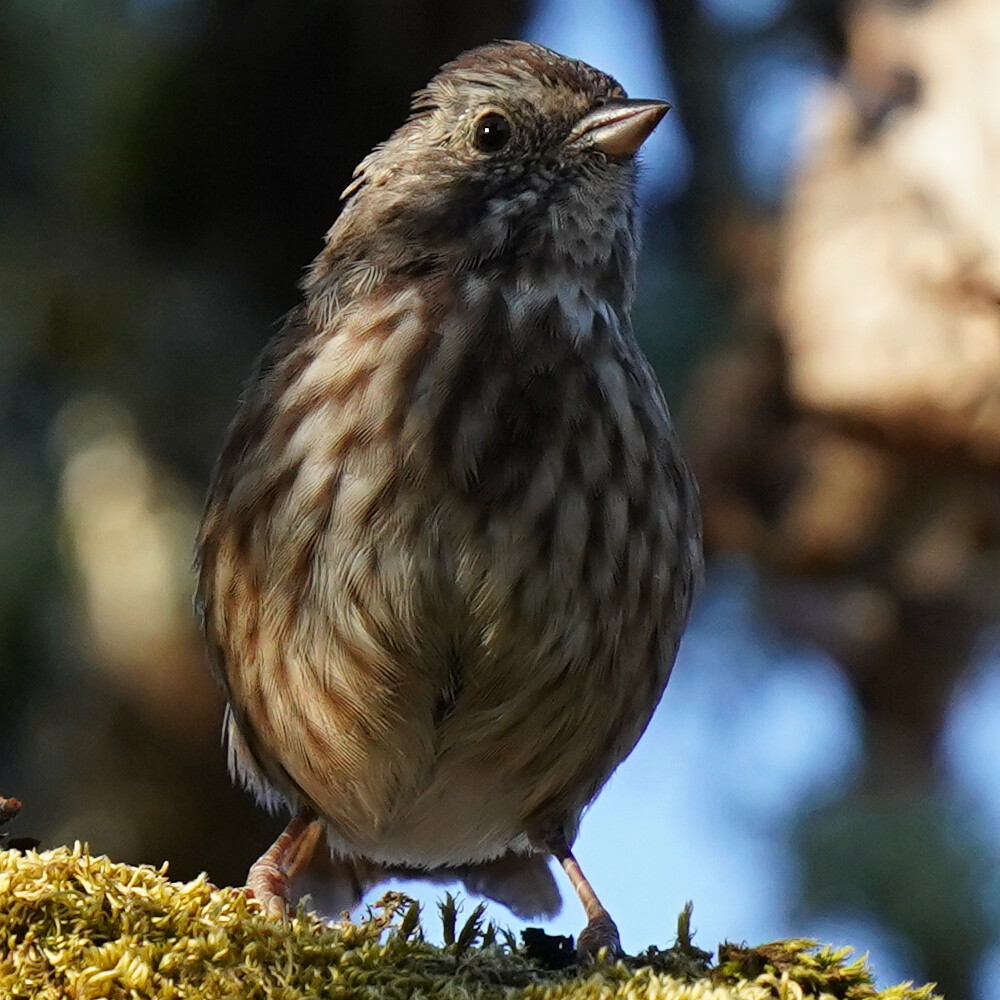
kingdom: Animalia
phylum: Chordata
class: Aves
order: Passeriformes
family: Passerellidae
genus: Melospiza
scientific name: Melospiza melodia
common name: Song sparrow
